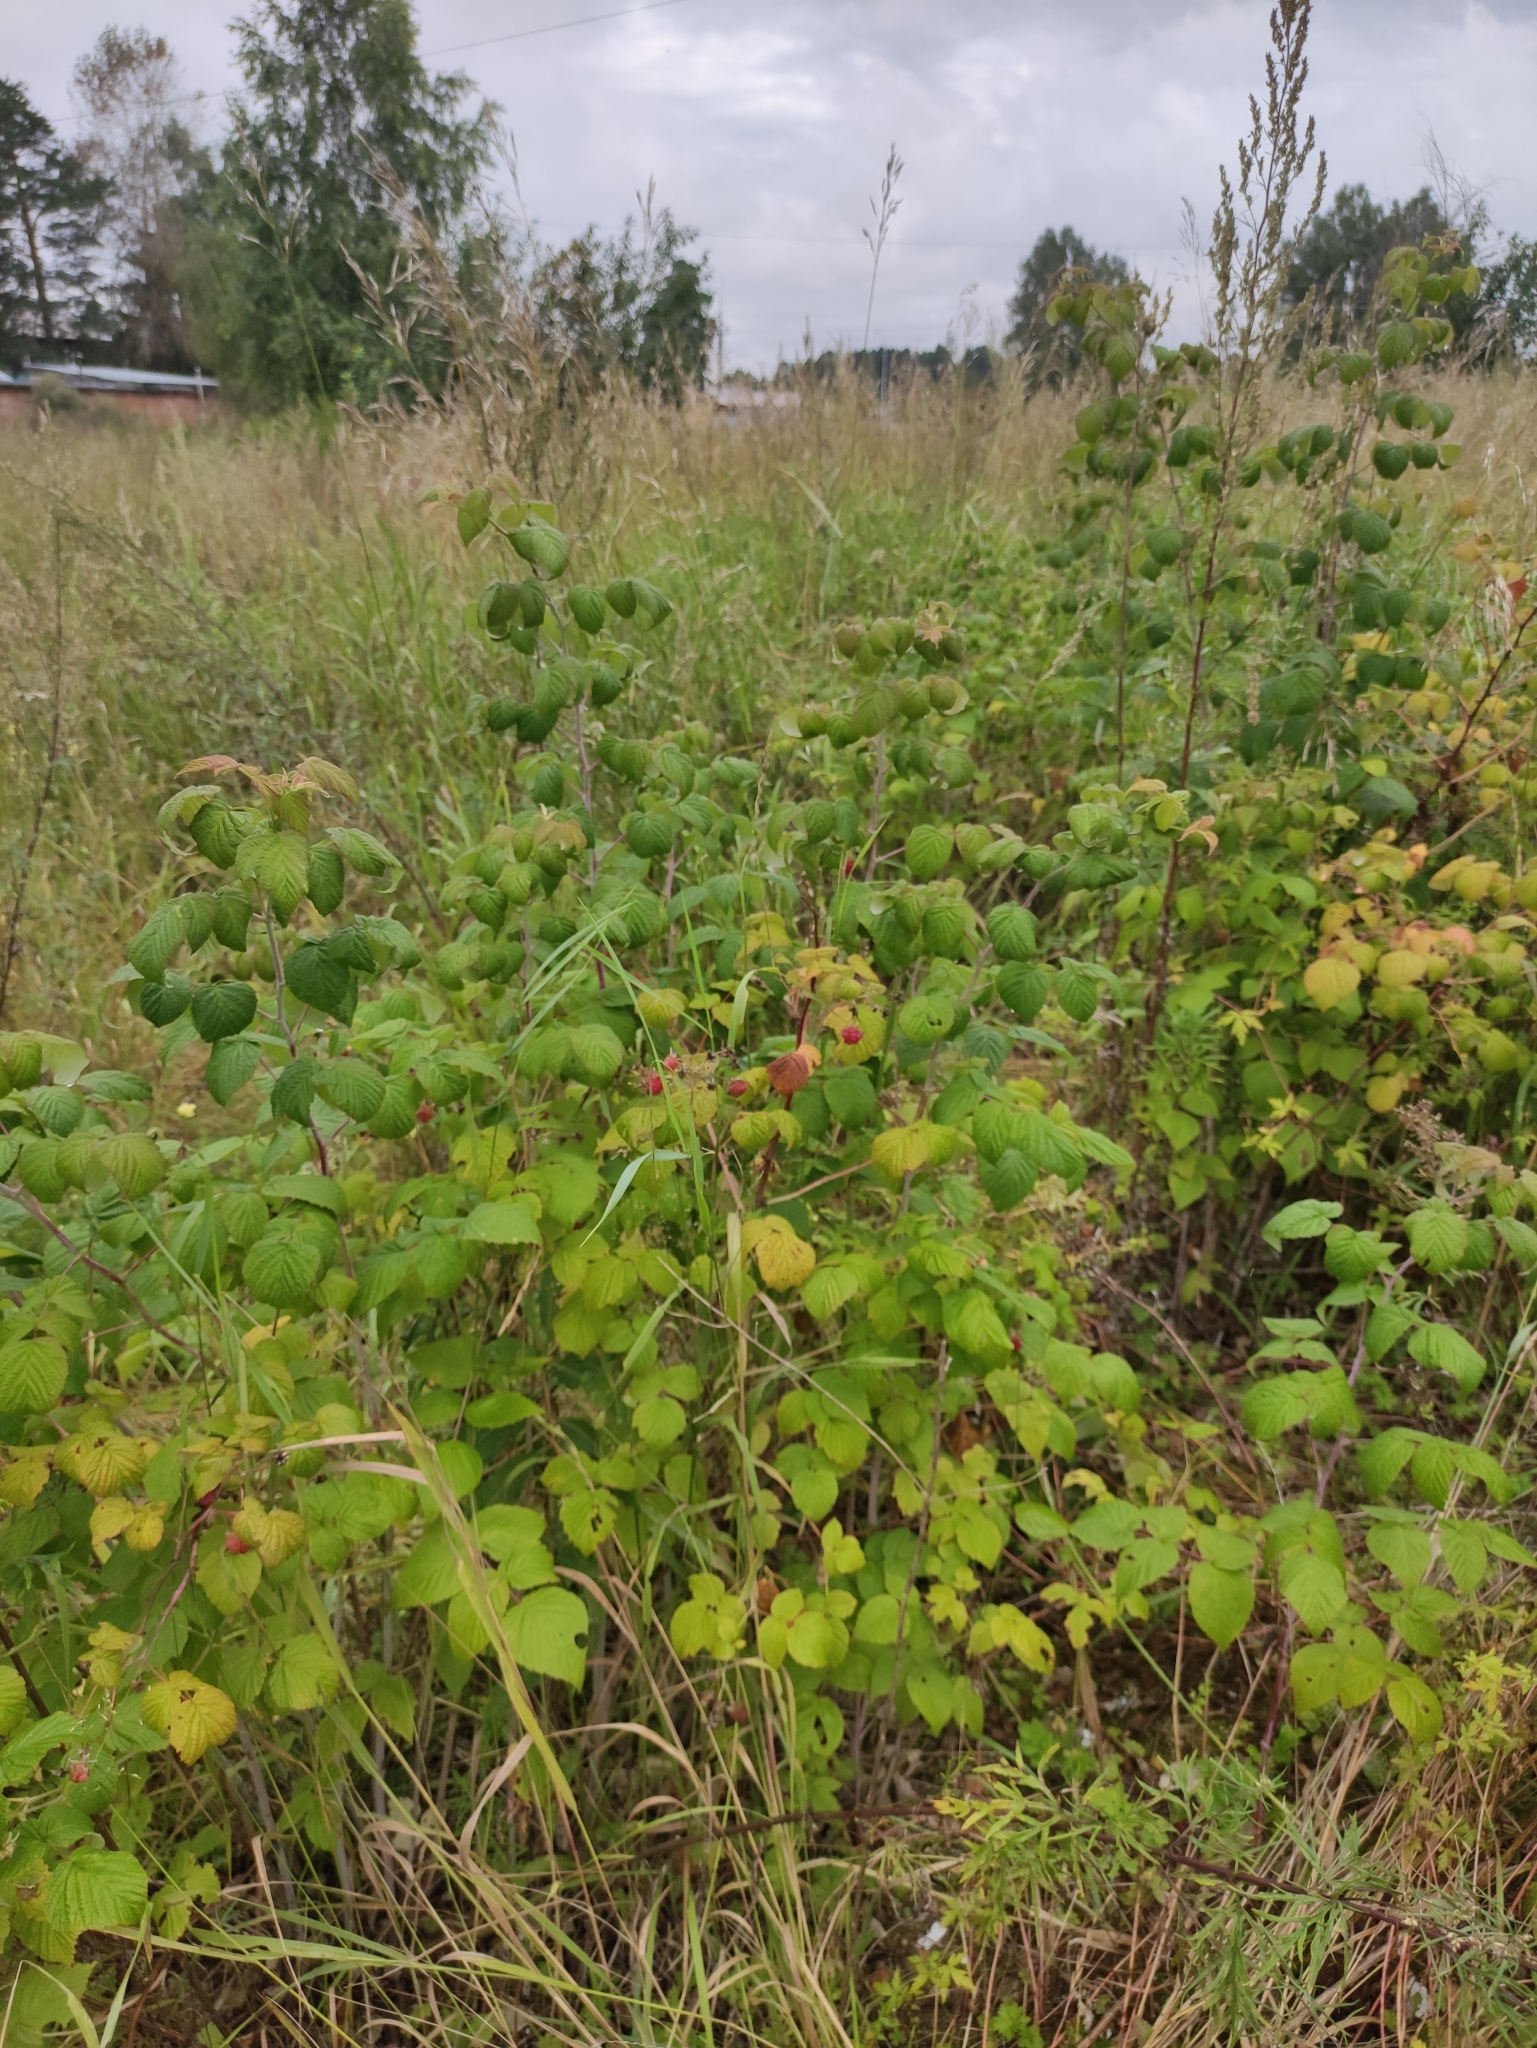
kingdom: Plantae
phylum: Tracheophyta
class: Magnoliopsida
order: Rosales
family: Rosaceae
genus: Rubus
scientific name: Rubus idaeus
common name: Raspberry
